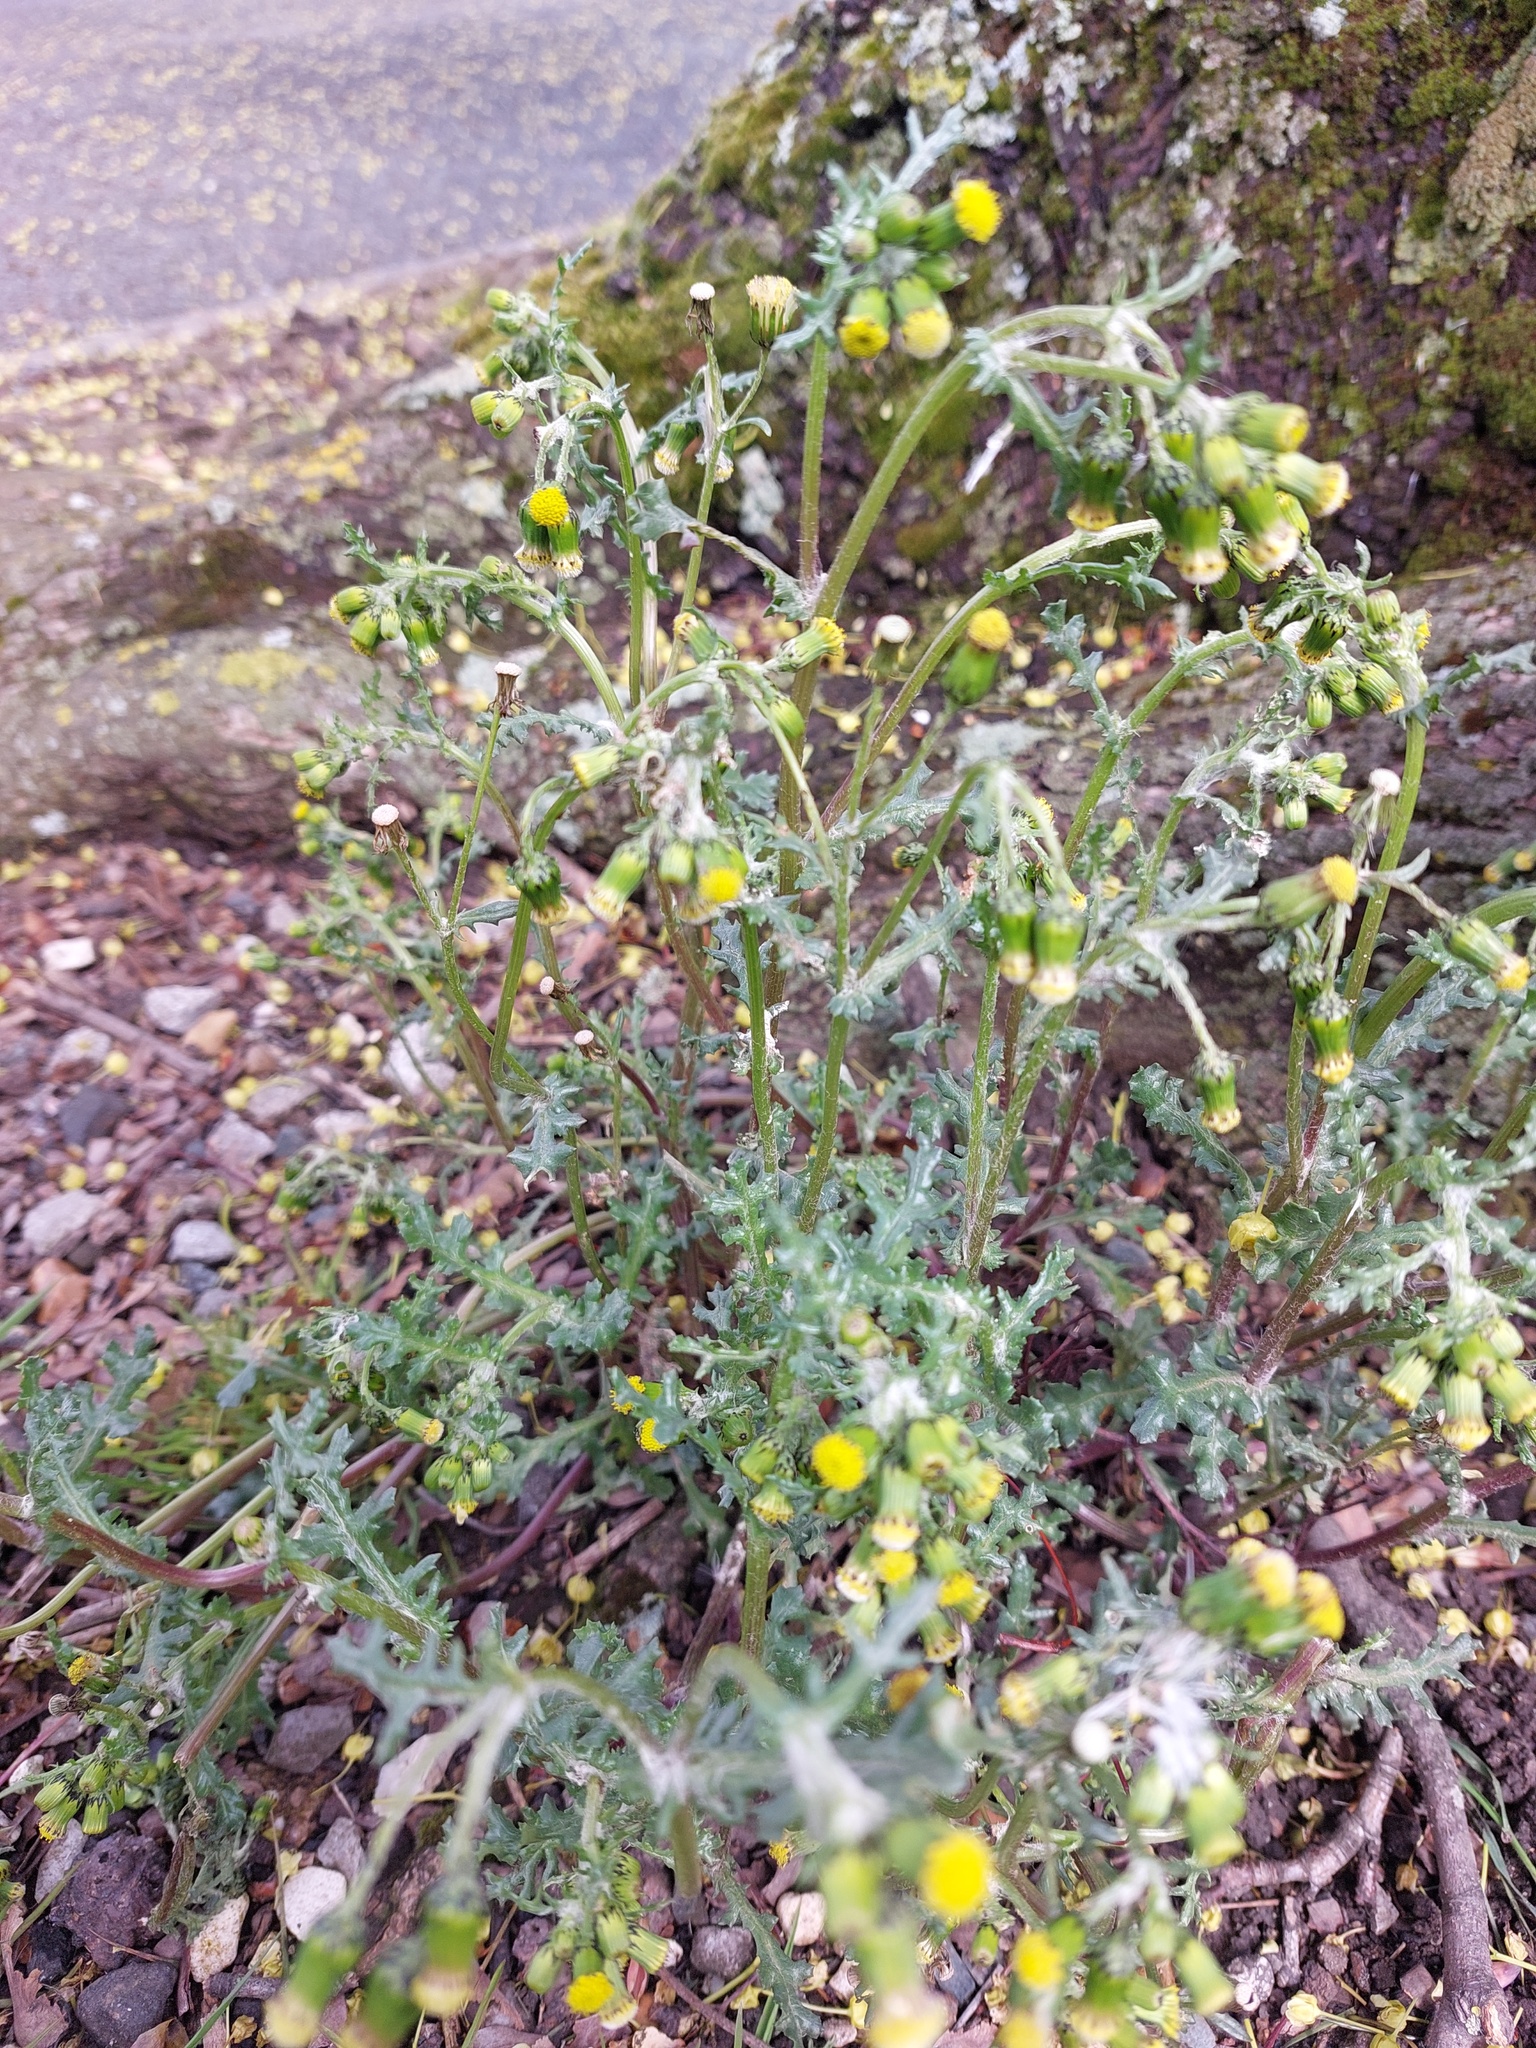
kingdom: Plantae
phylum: Tracheophyta
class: Magnoliopsida
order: Asterales
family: Asteraceae
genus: Senecio
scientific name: Senecio vulgaris
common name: Old-man-in-the-spring
